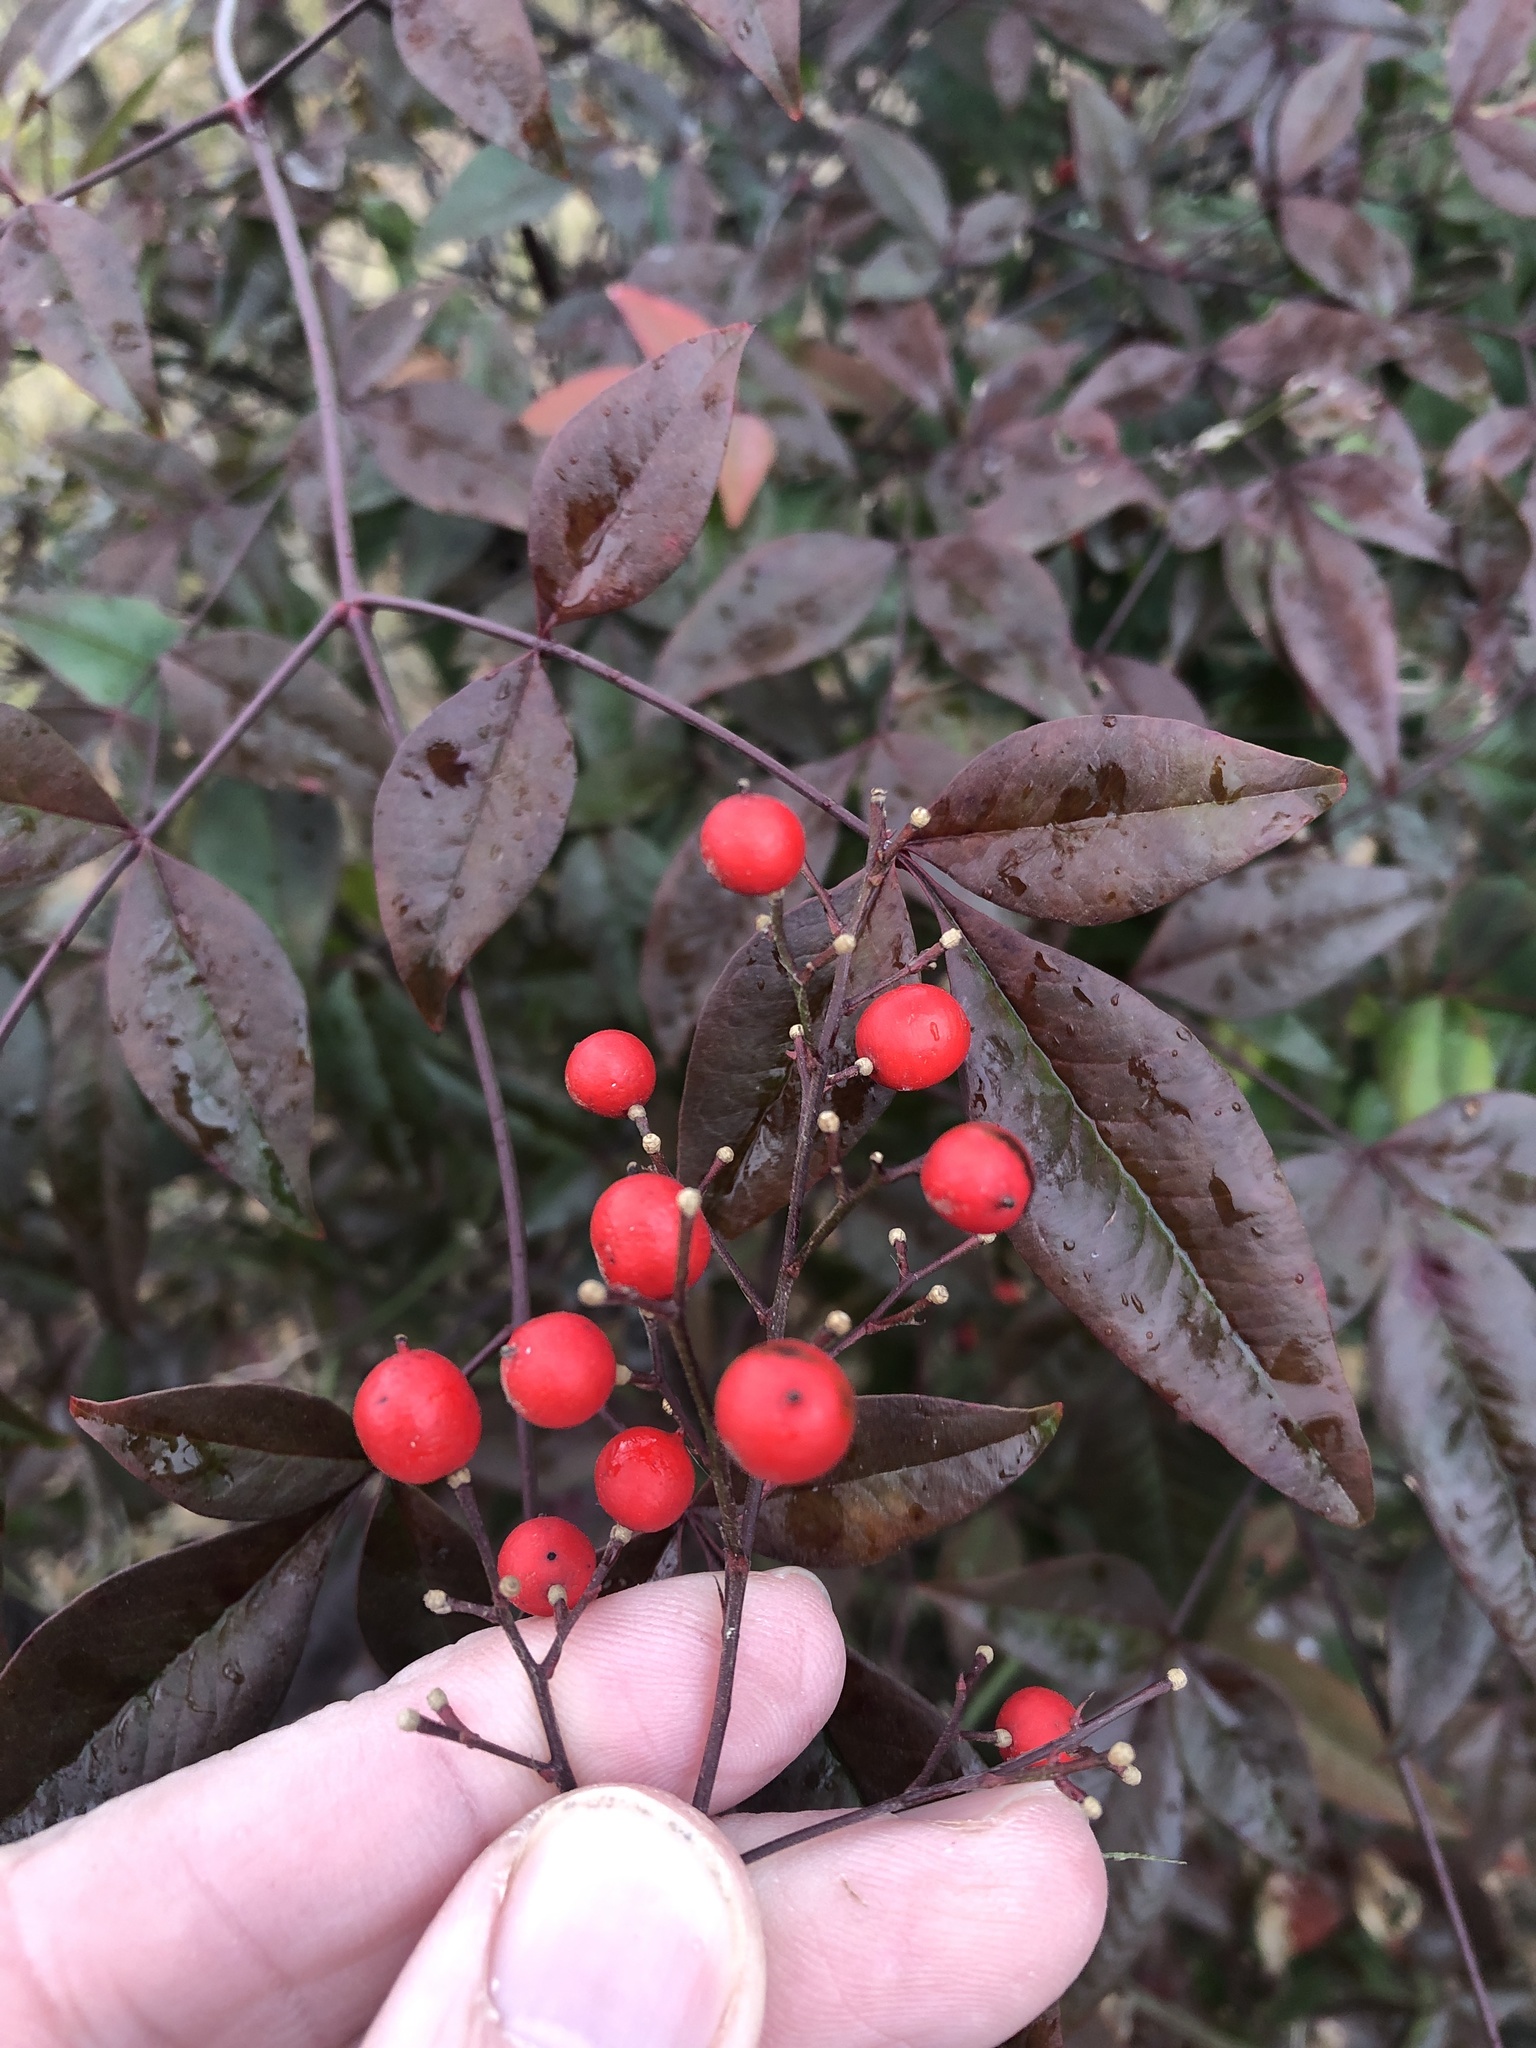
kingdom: Plantae
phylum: Tracheophyta
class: Magnoliopsida
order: Ranunculales
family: Berberidaceae
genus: Nandina
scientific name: Nandina domestica
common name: Sacred bamboo
